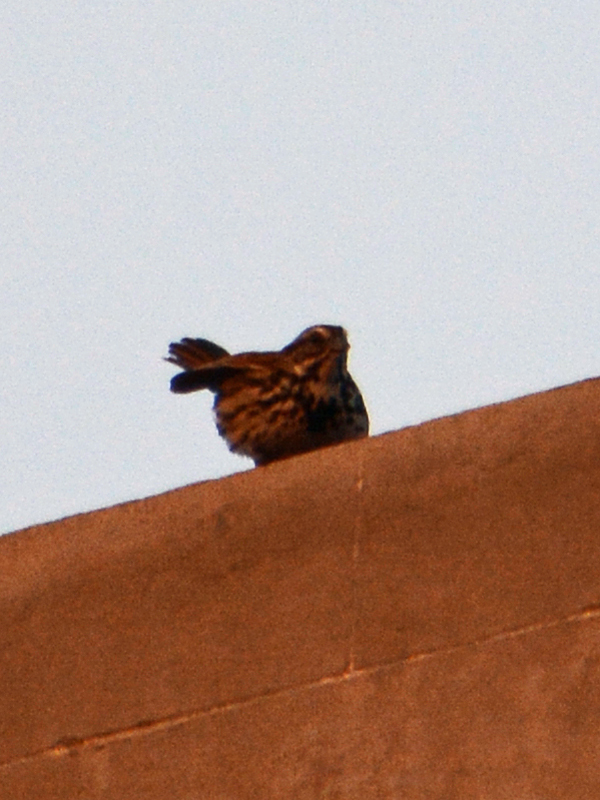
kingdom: Animalia
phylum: Chordata
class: Aves
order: Passeriformes
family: Passerellidae
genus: Melospiza
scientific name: Melospiza melodia
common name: Song sparrow
